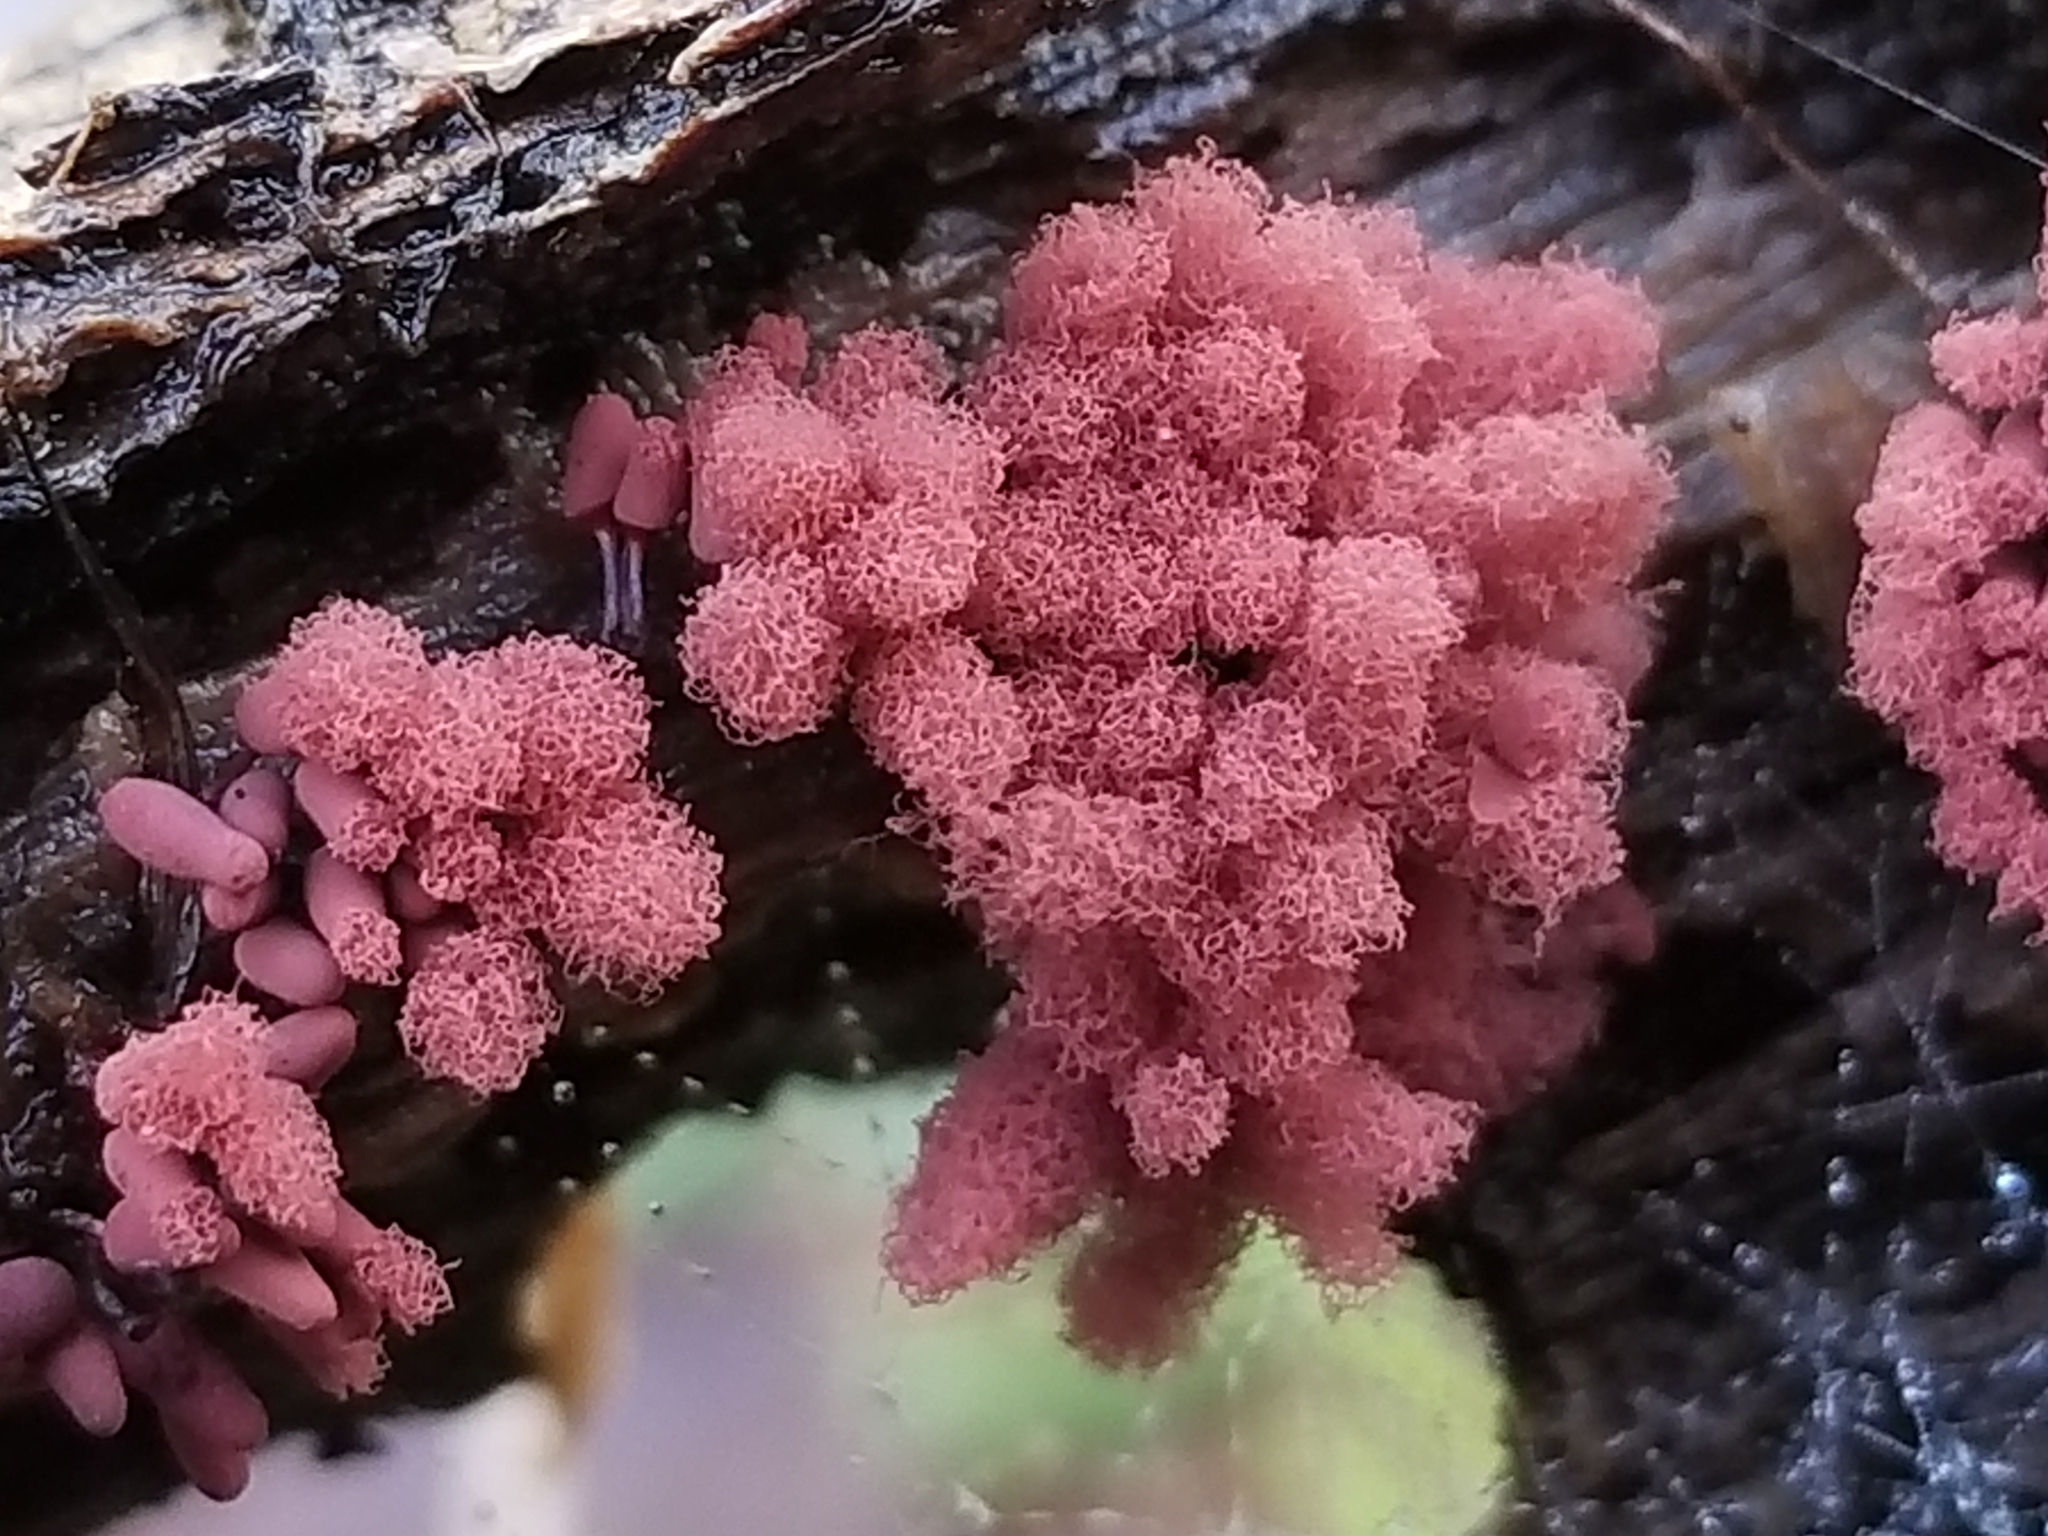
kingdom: Protozoa
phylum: Mycetozoa
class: Myxomycetes
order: Trichiales
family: Arcyriaceae
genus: Arcyria
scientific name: Arcyria denudata
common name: Carnival candy slime mold
